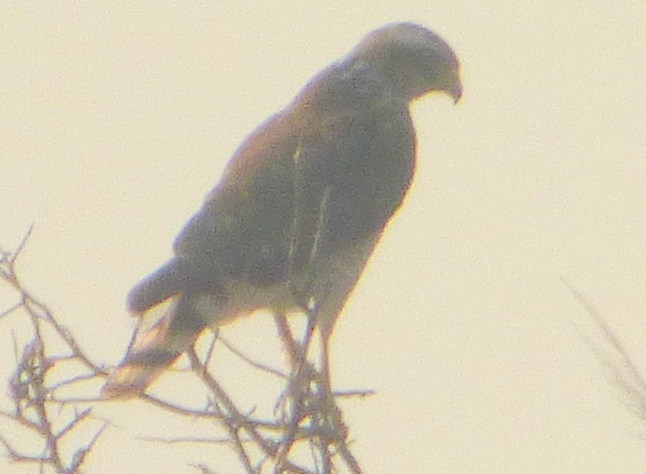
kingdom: Animalia
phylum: Chordata
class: Aves
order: Accipitriformes
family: Accipitridae
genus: Rupornis
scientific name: Rupornis magnirostris
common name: Roadside hawk
